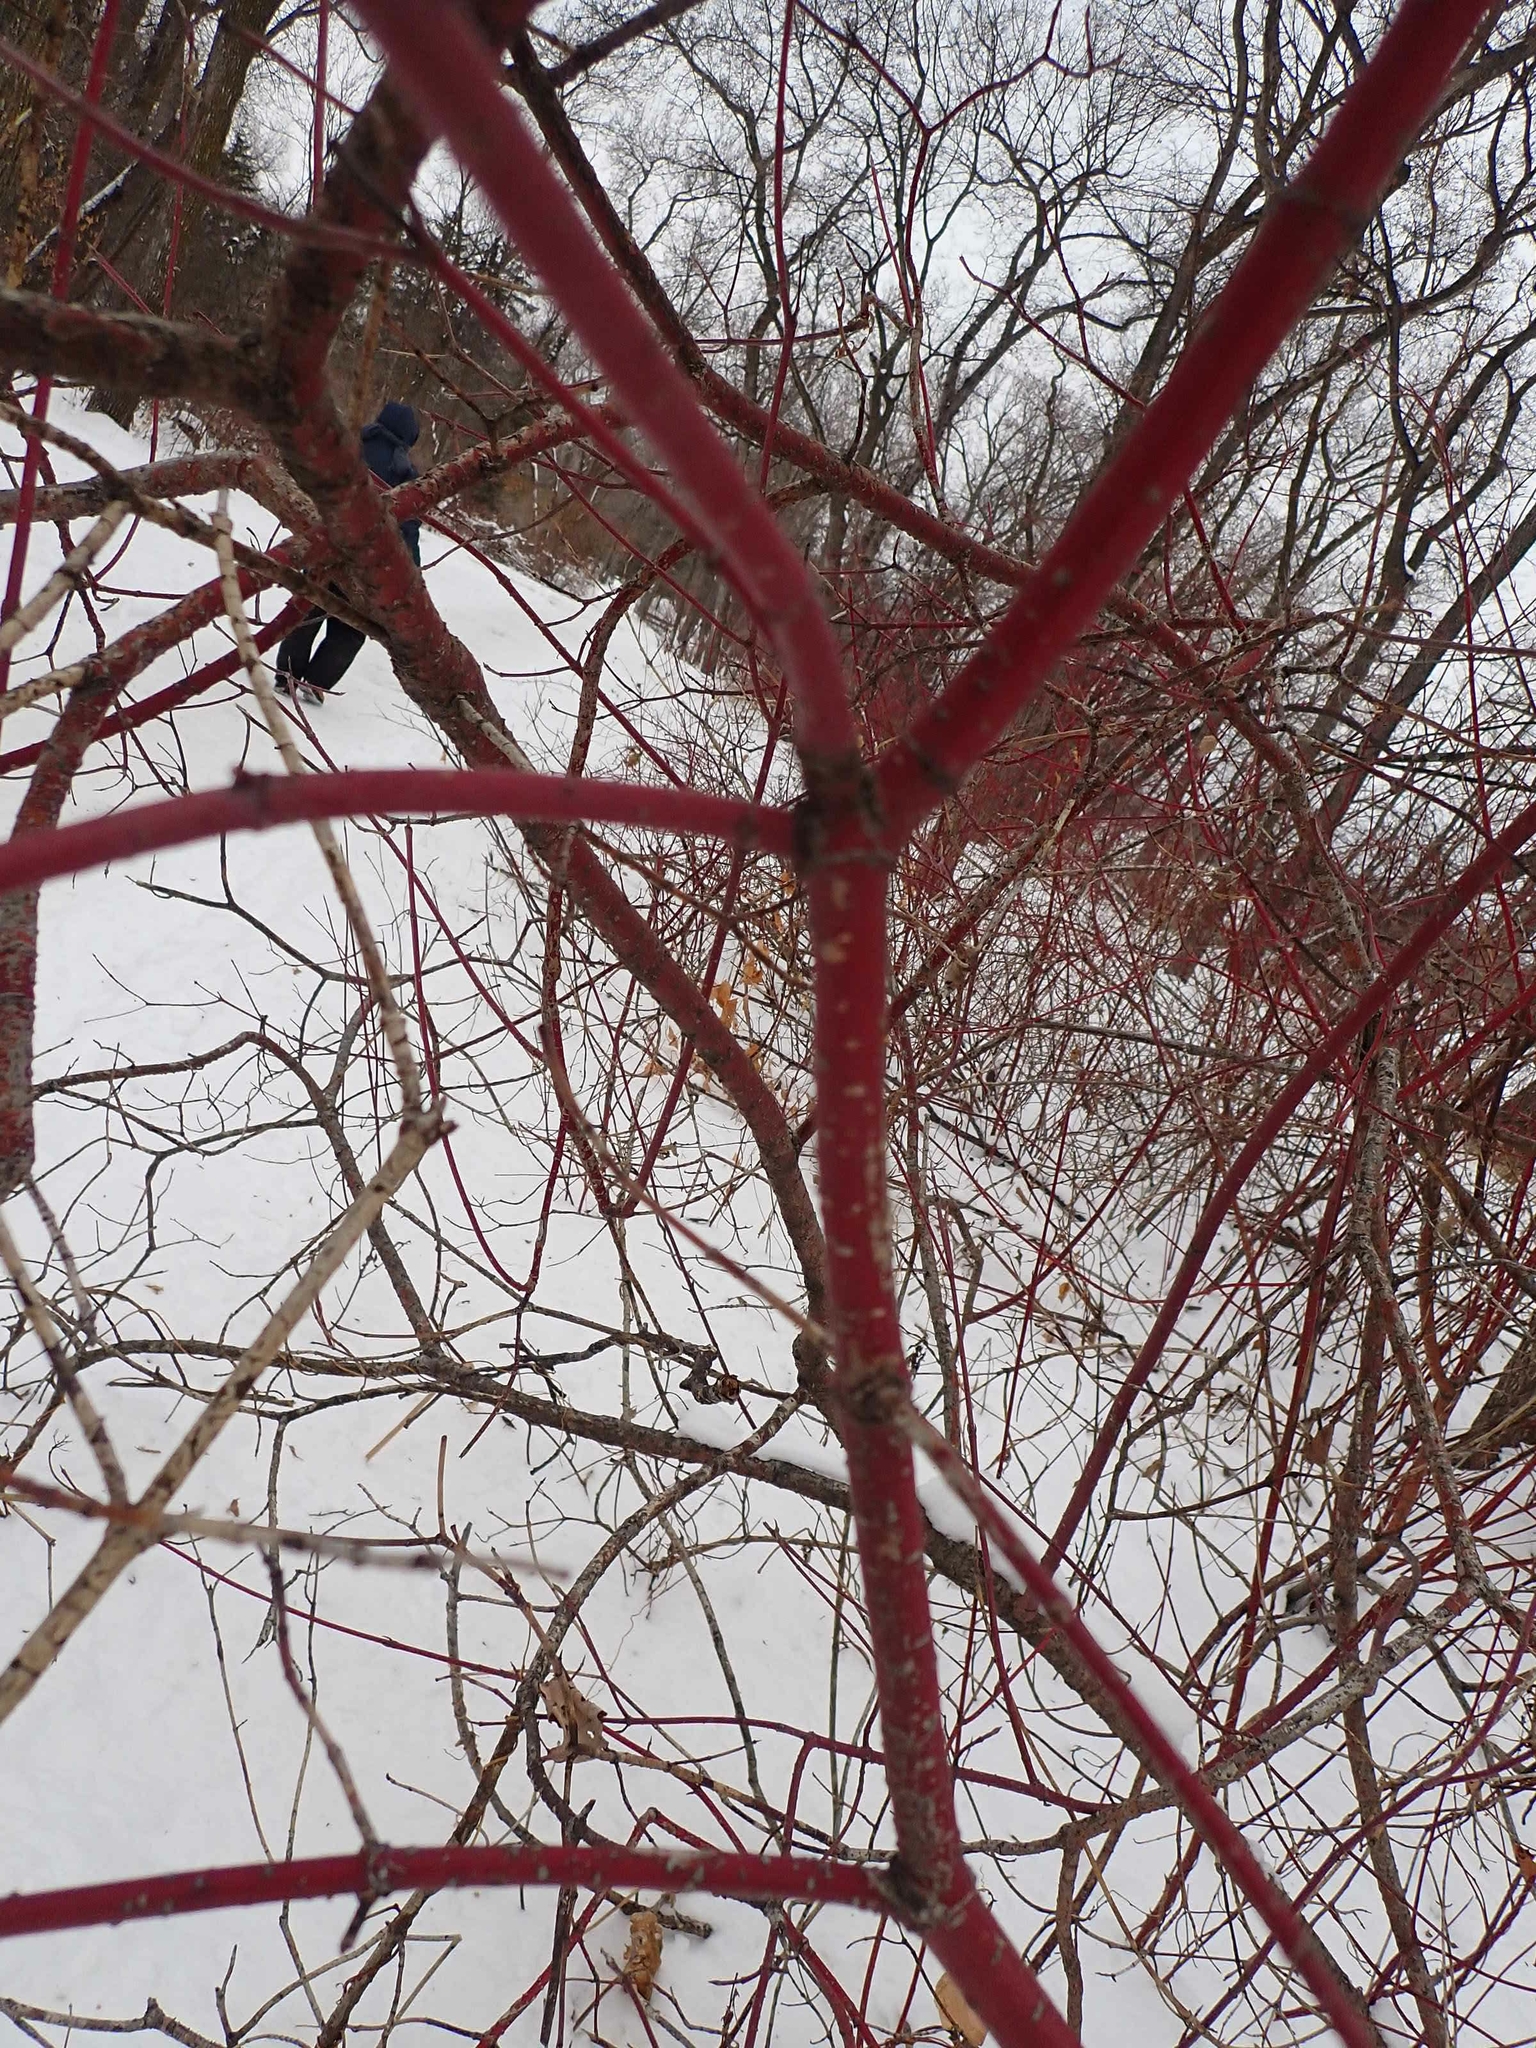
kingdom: Plantae
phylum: Tracheophyta
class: Magnoliopsida
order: Cornales
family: Cornaceae
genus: Cornus
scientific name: Cornus sericea
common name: Red-osier dogwood
